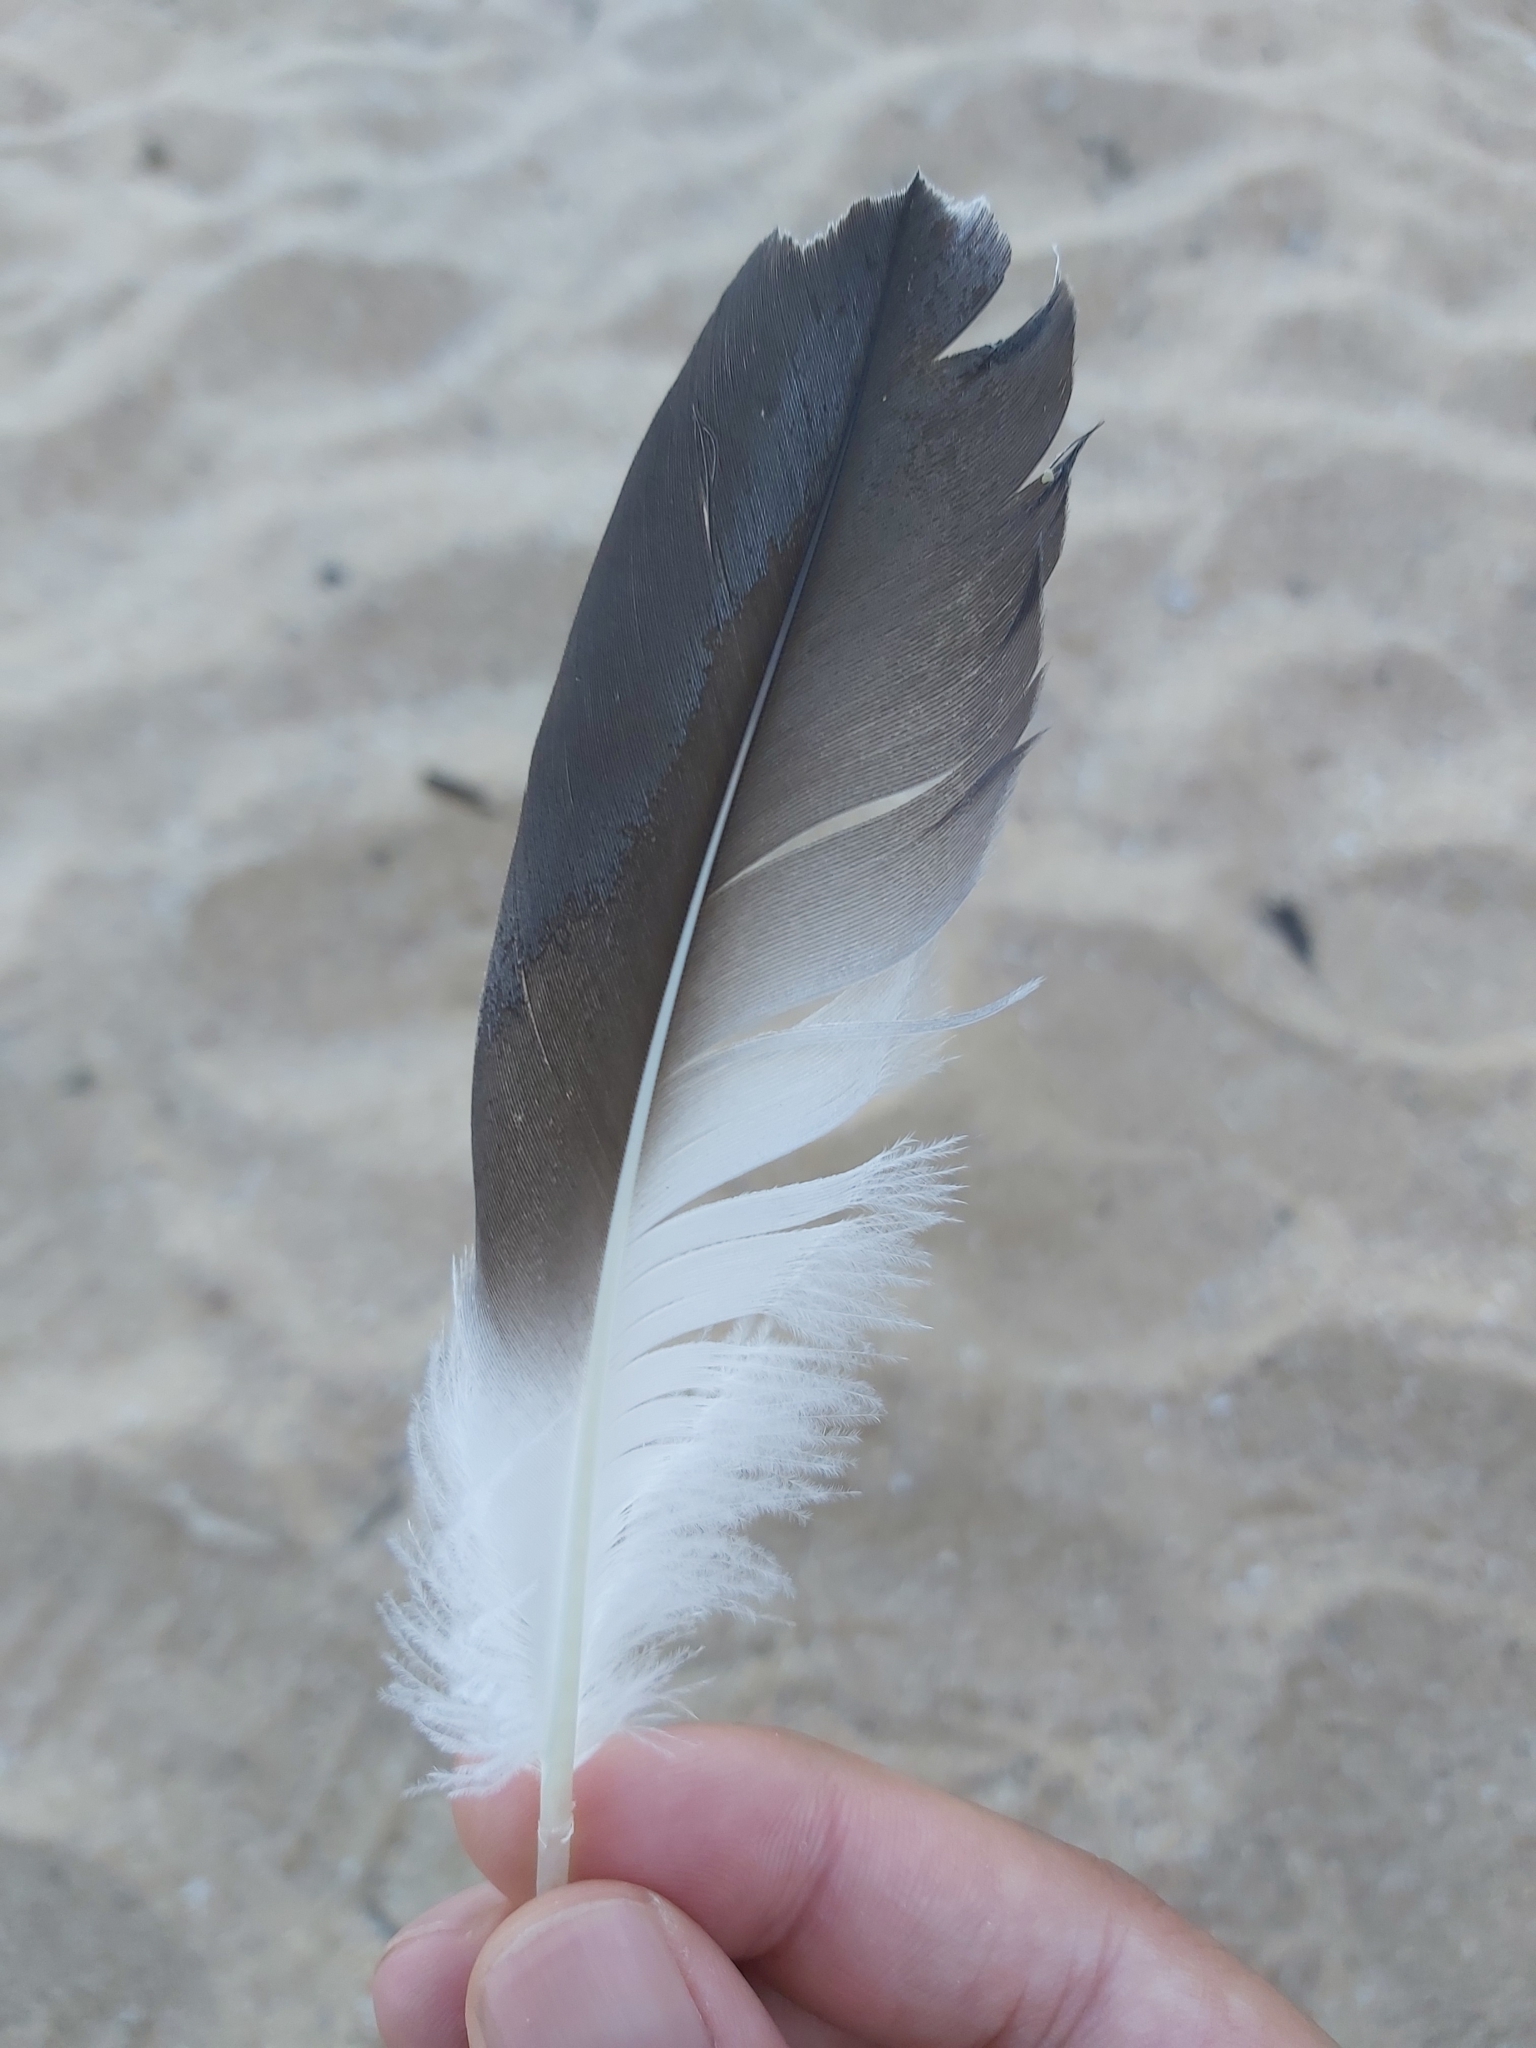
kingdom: Animalia
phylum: Chordata
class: Aves
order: Suliformes
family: Sulidae
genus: Morus
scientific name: Morus serrator
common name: Australasian gannet
